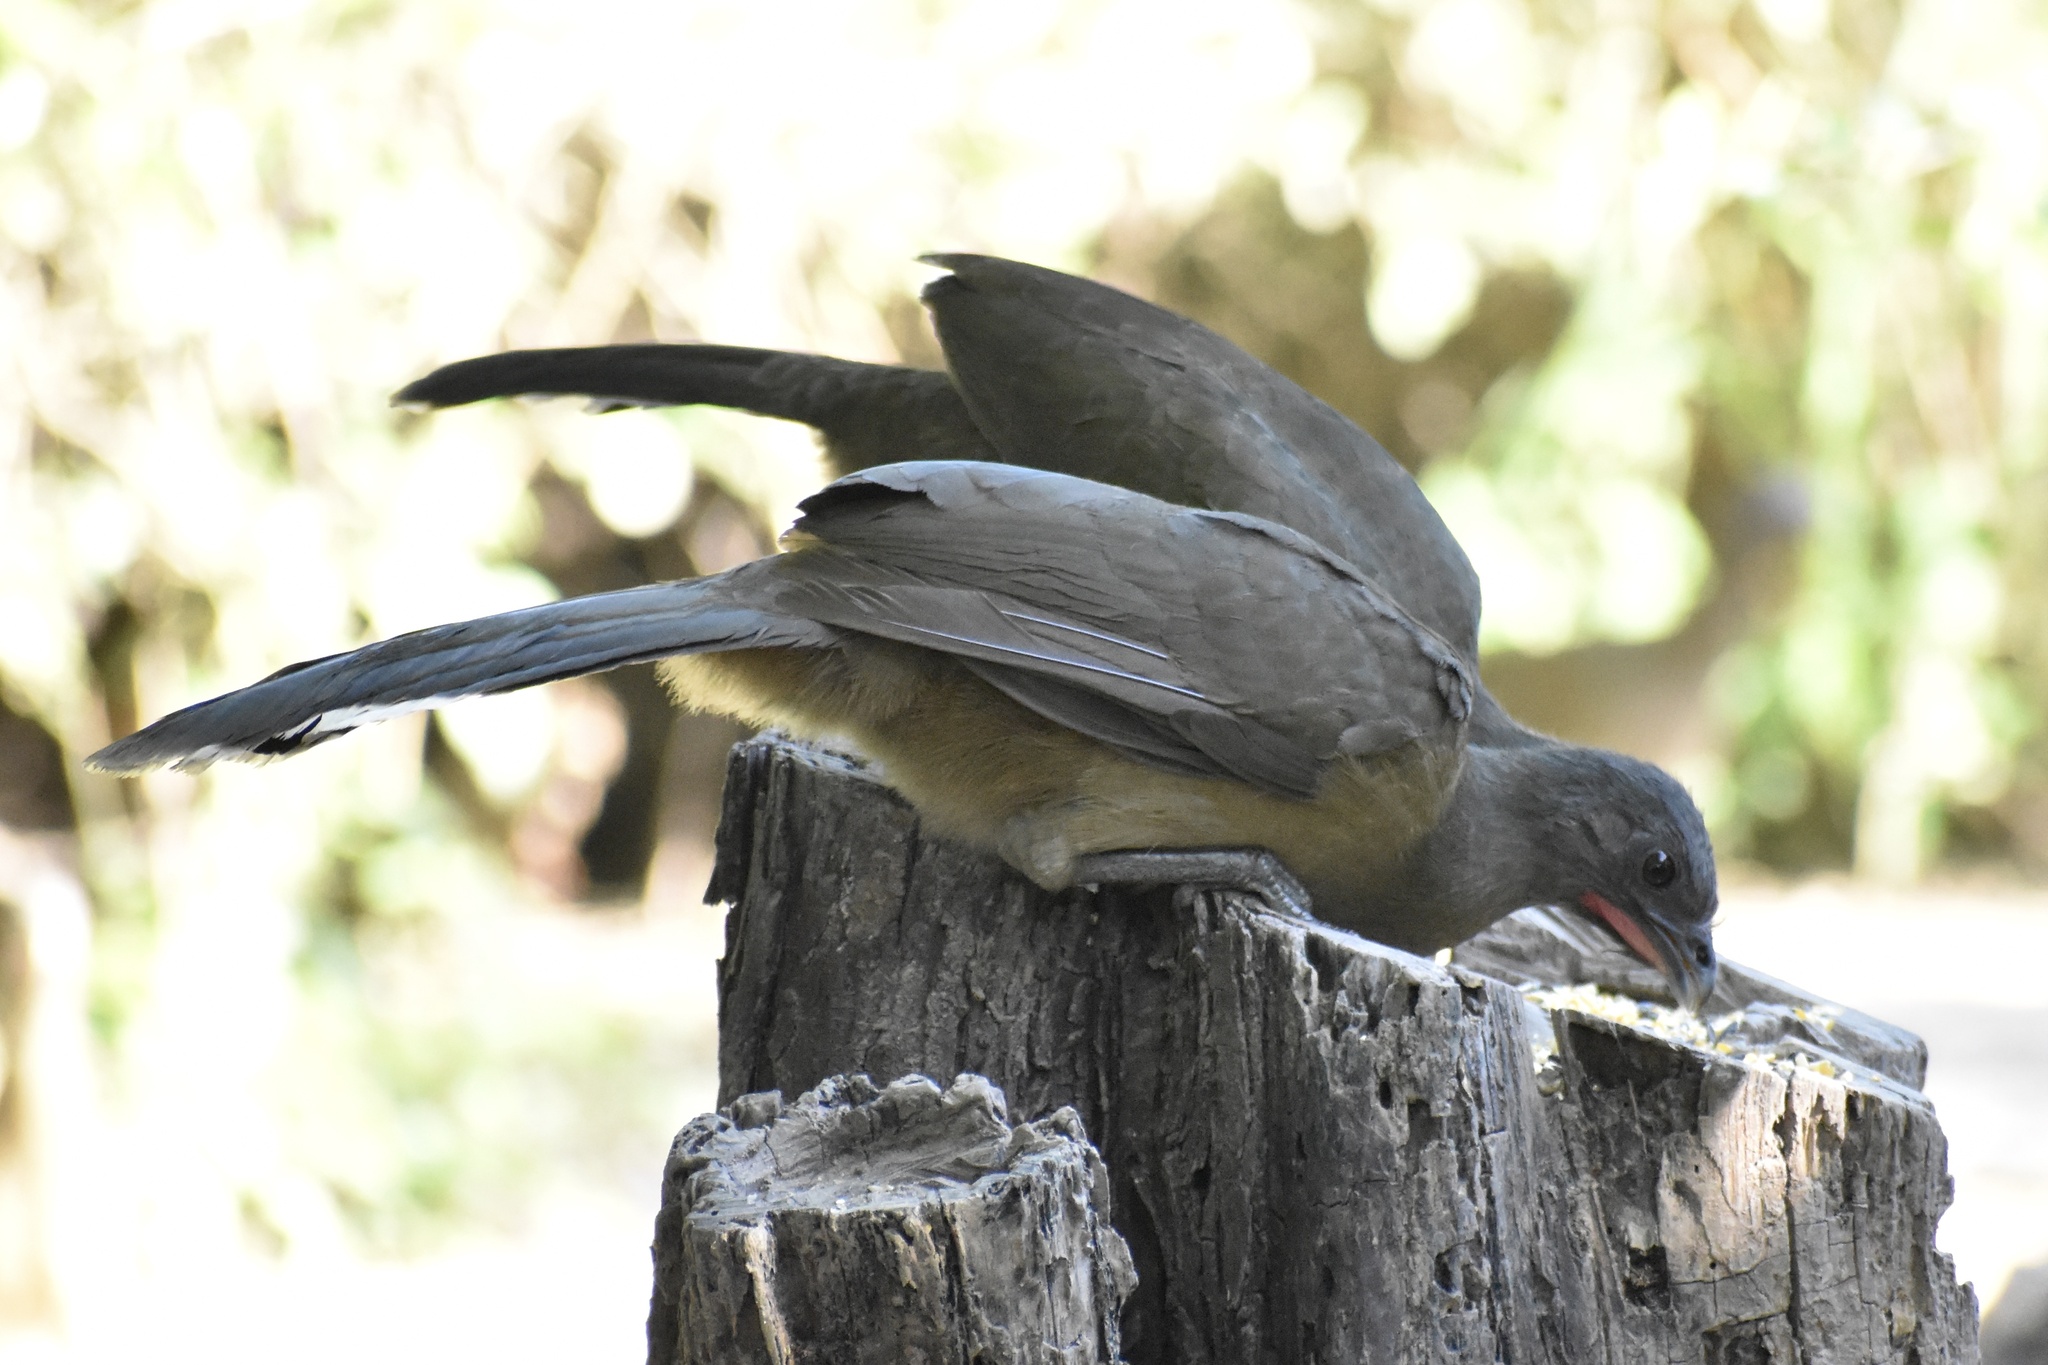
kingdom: Animalia
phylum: Chordata
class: Aves
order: Galliformes
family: Cracidae
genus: Ortalis
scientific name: Ortalis vetula
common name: Plain chachalaca
